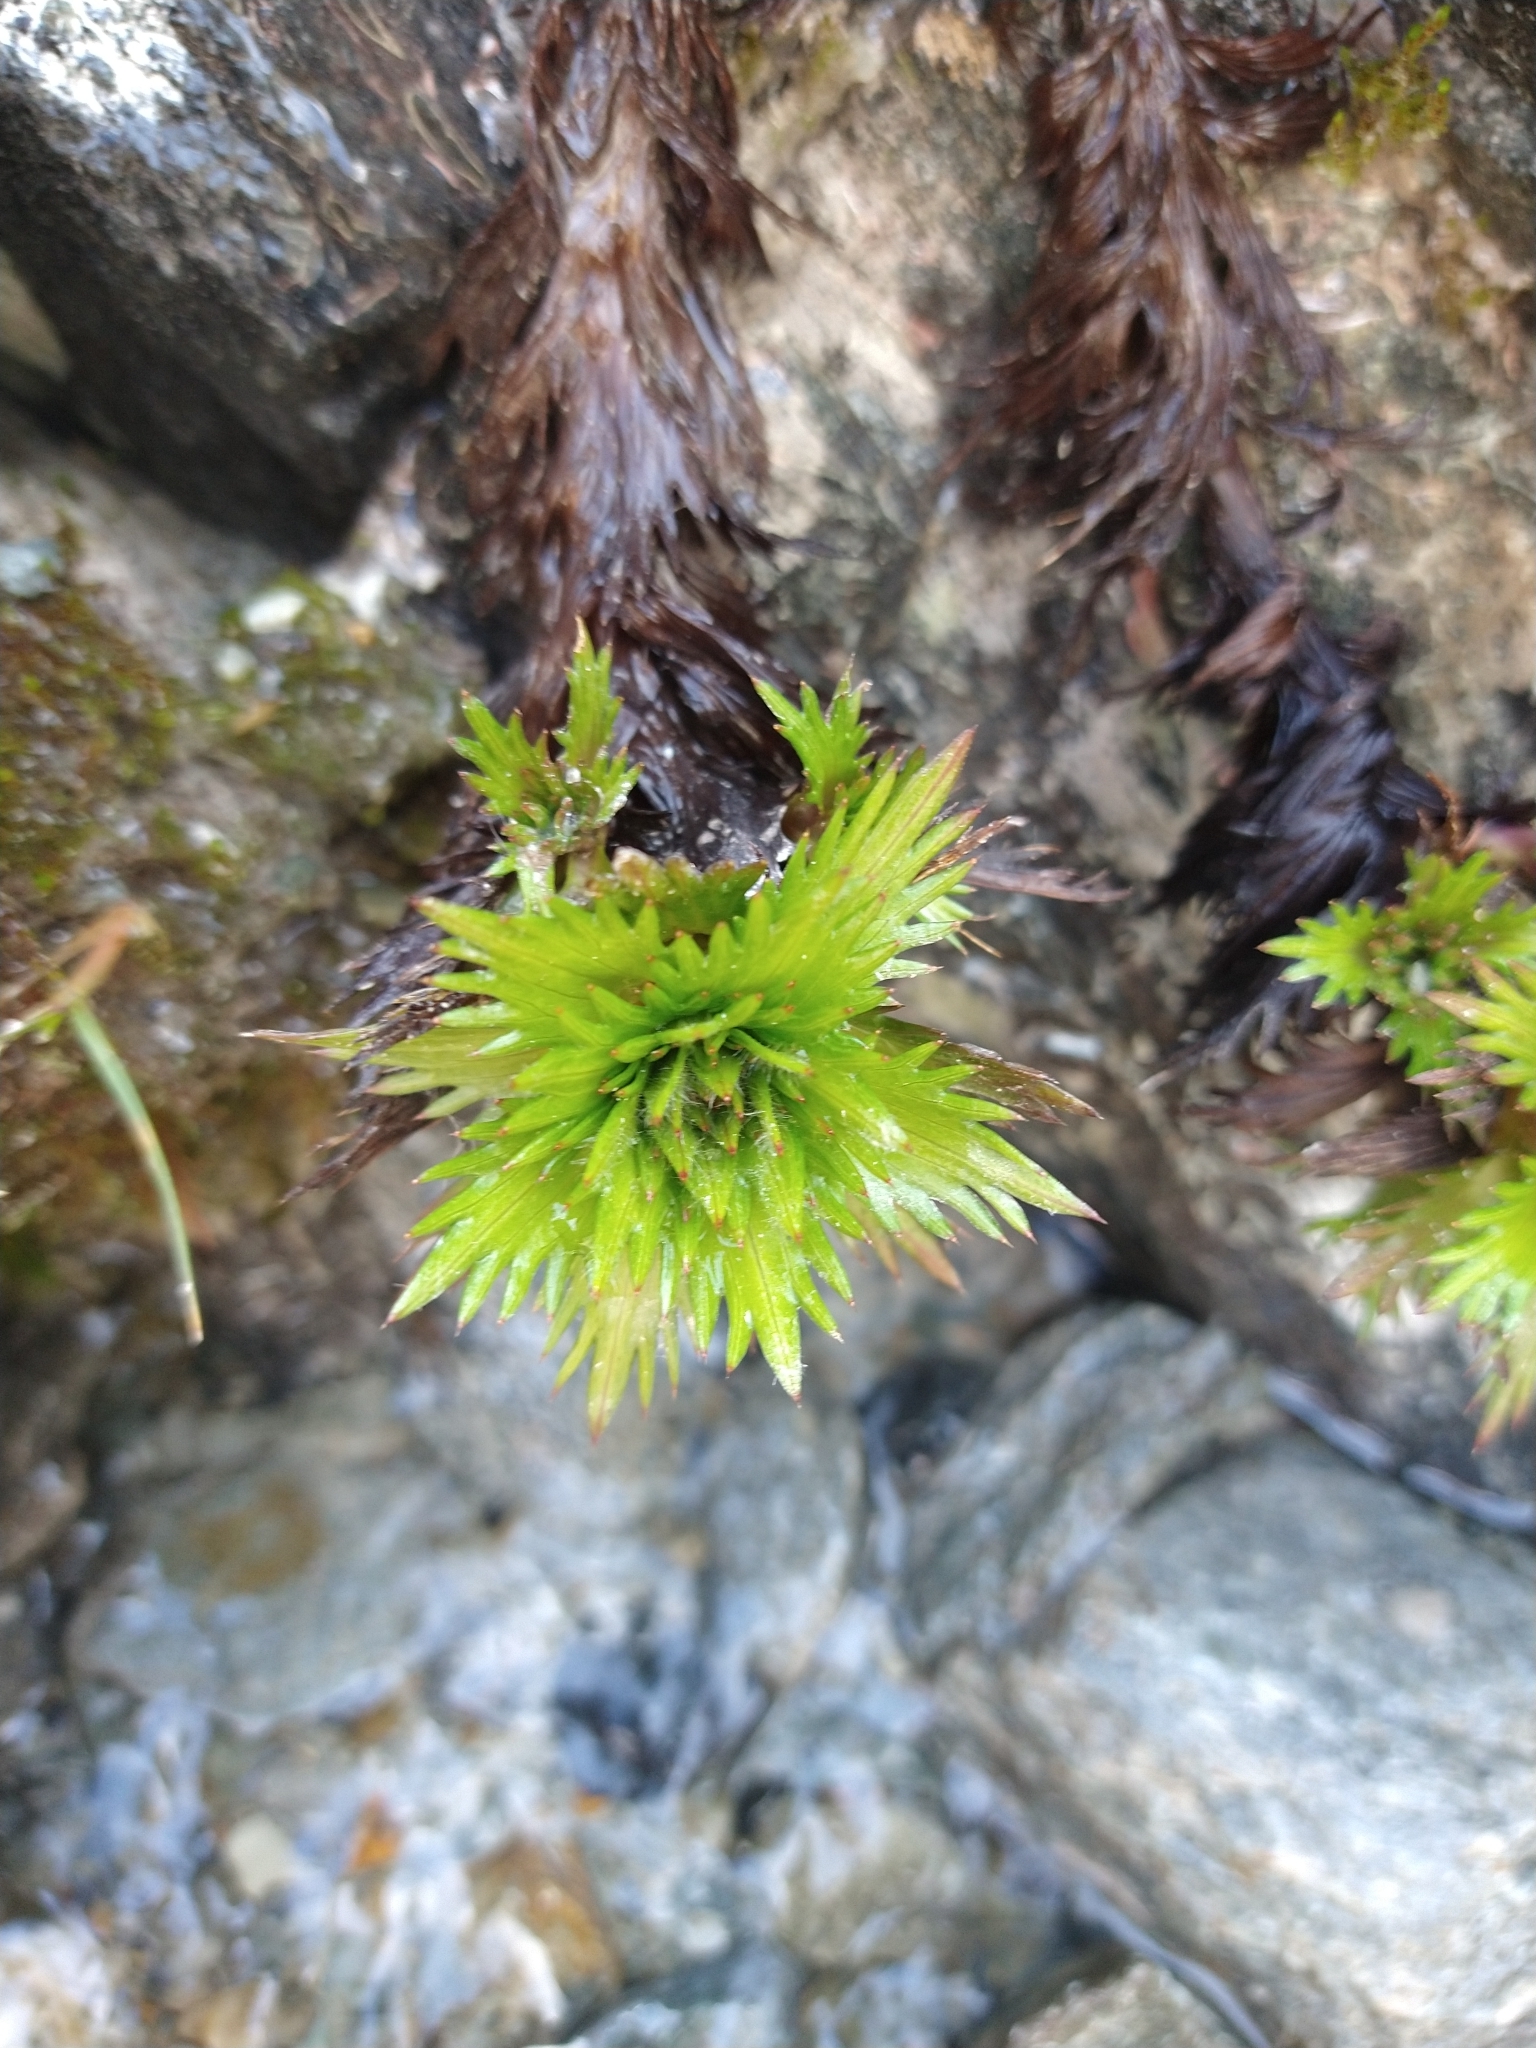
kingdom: Plantae
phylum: Tracheophyta
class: Magnoliopsida
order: Asterales
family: Asteraceae
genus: Nassauvia
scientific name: Nassauvia magellanica
